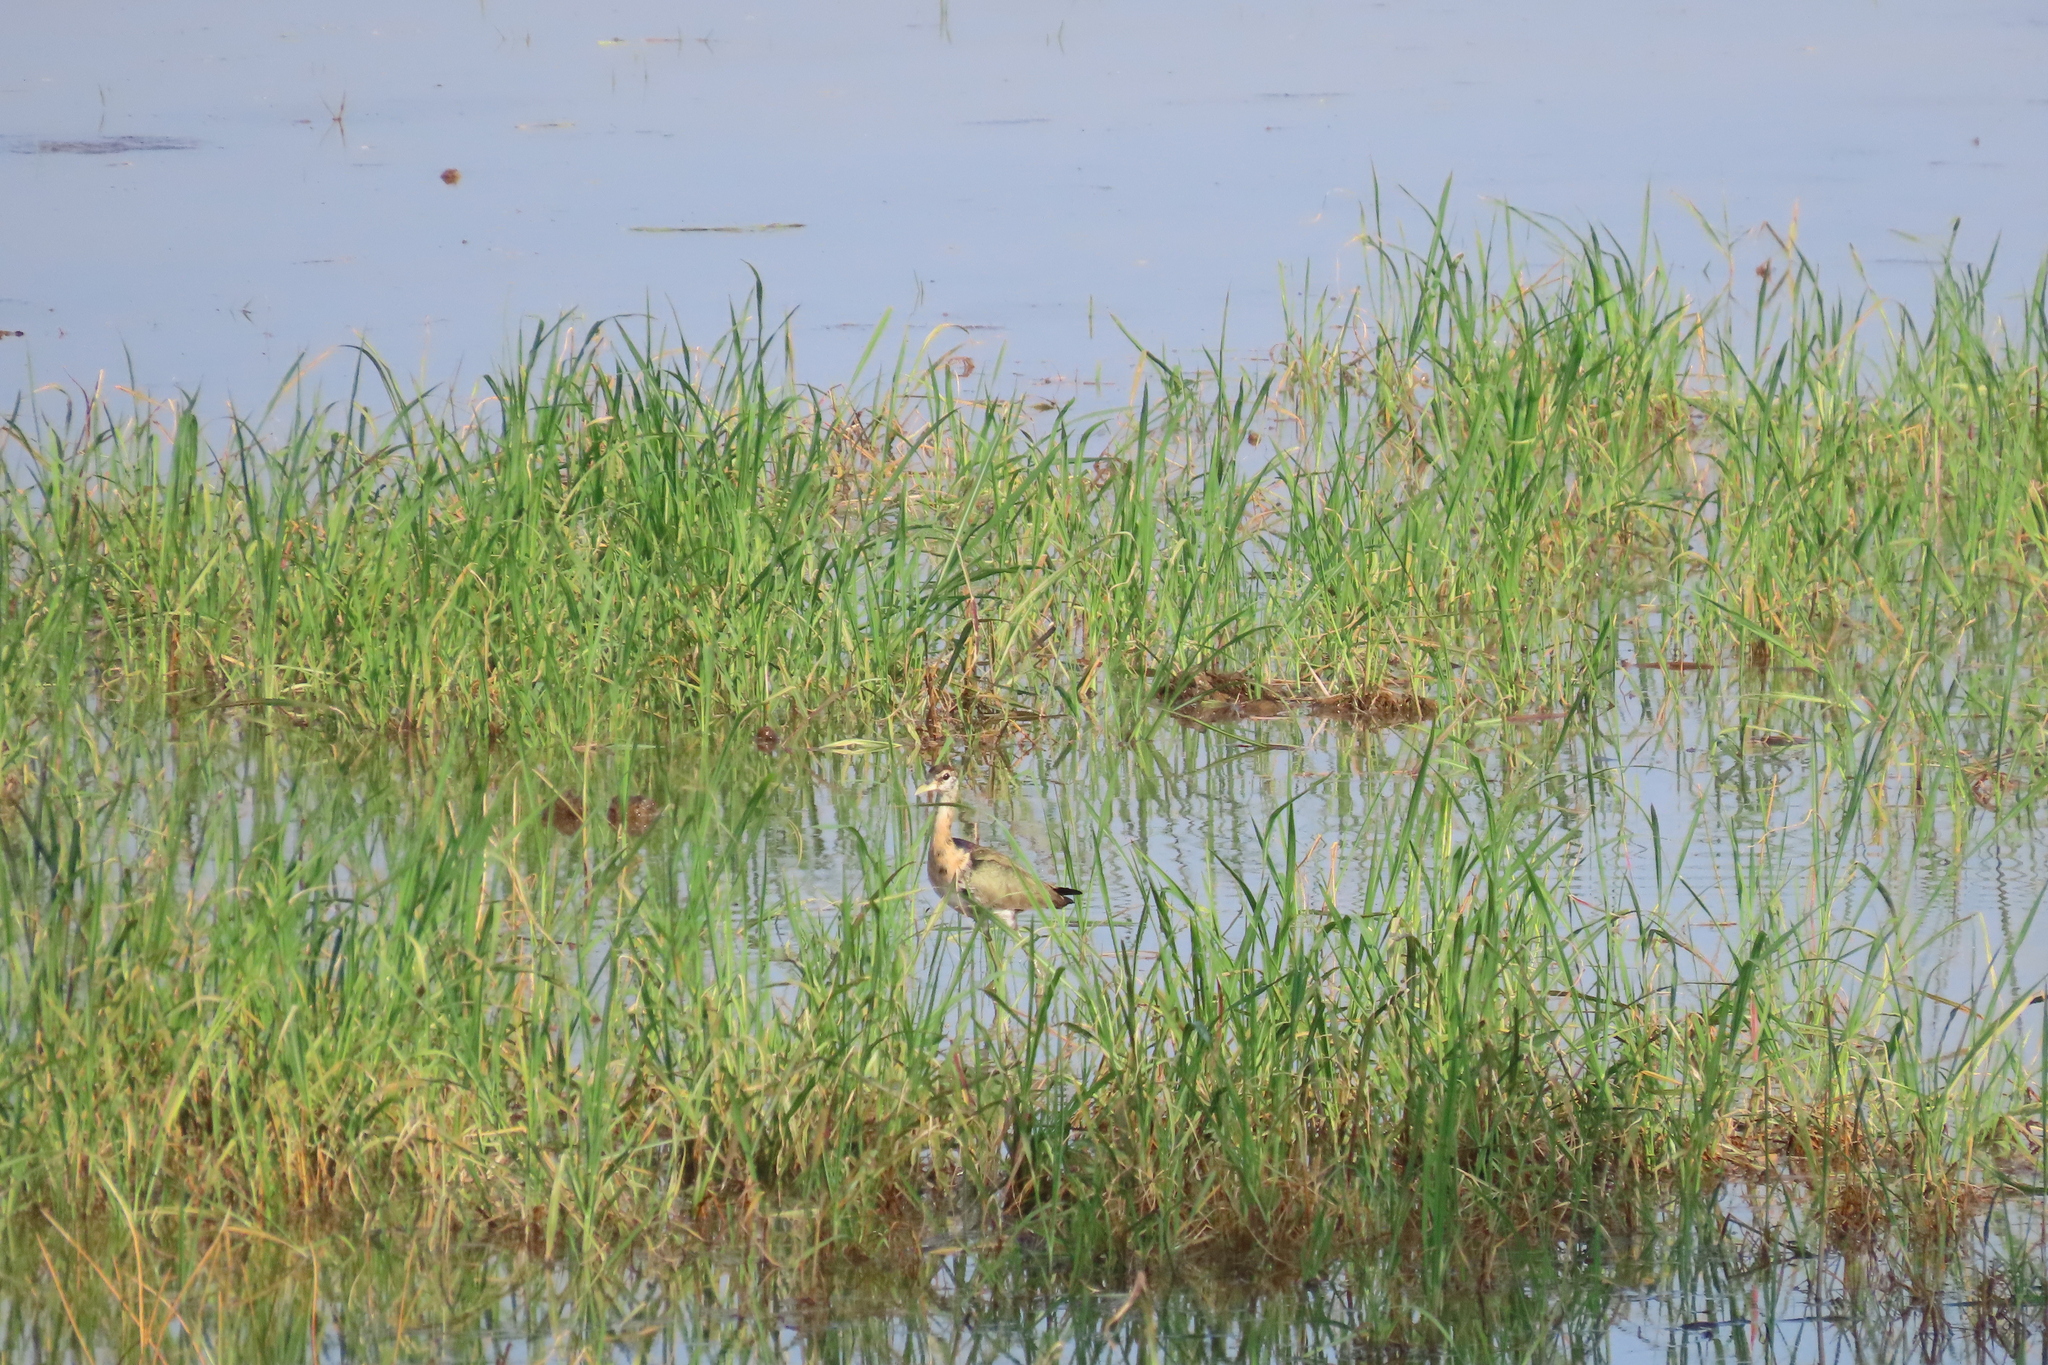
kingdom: Animalia
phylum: Chordata
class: Aves
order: Charadriiformes
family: Jacanidae
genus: Metopidius
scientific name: Metopidius indicus
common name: Bronze-winged jacana
